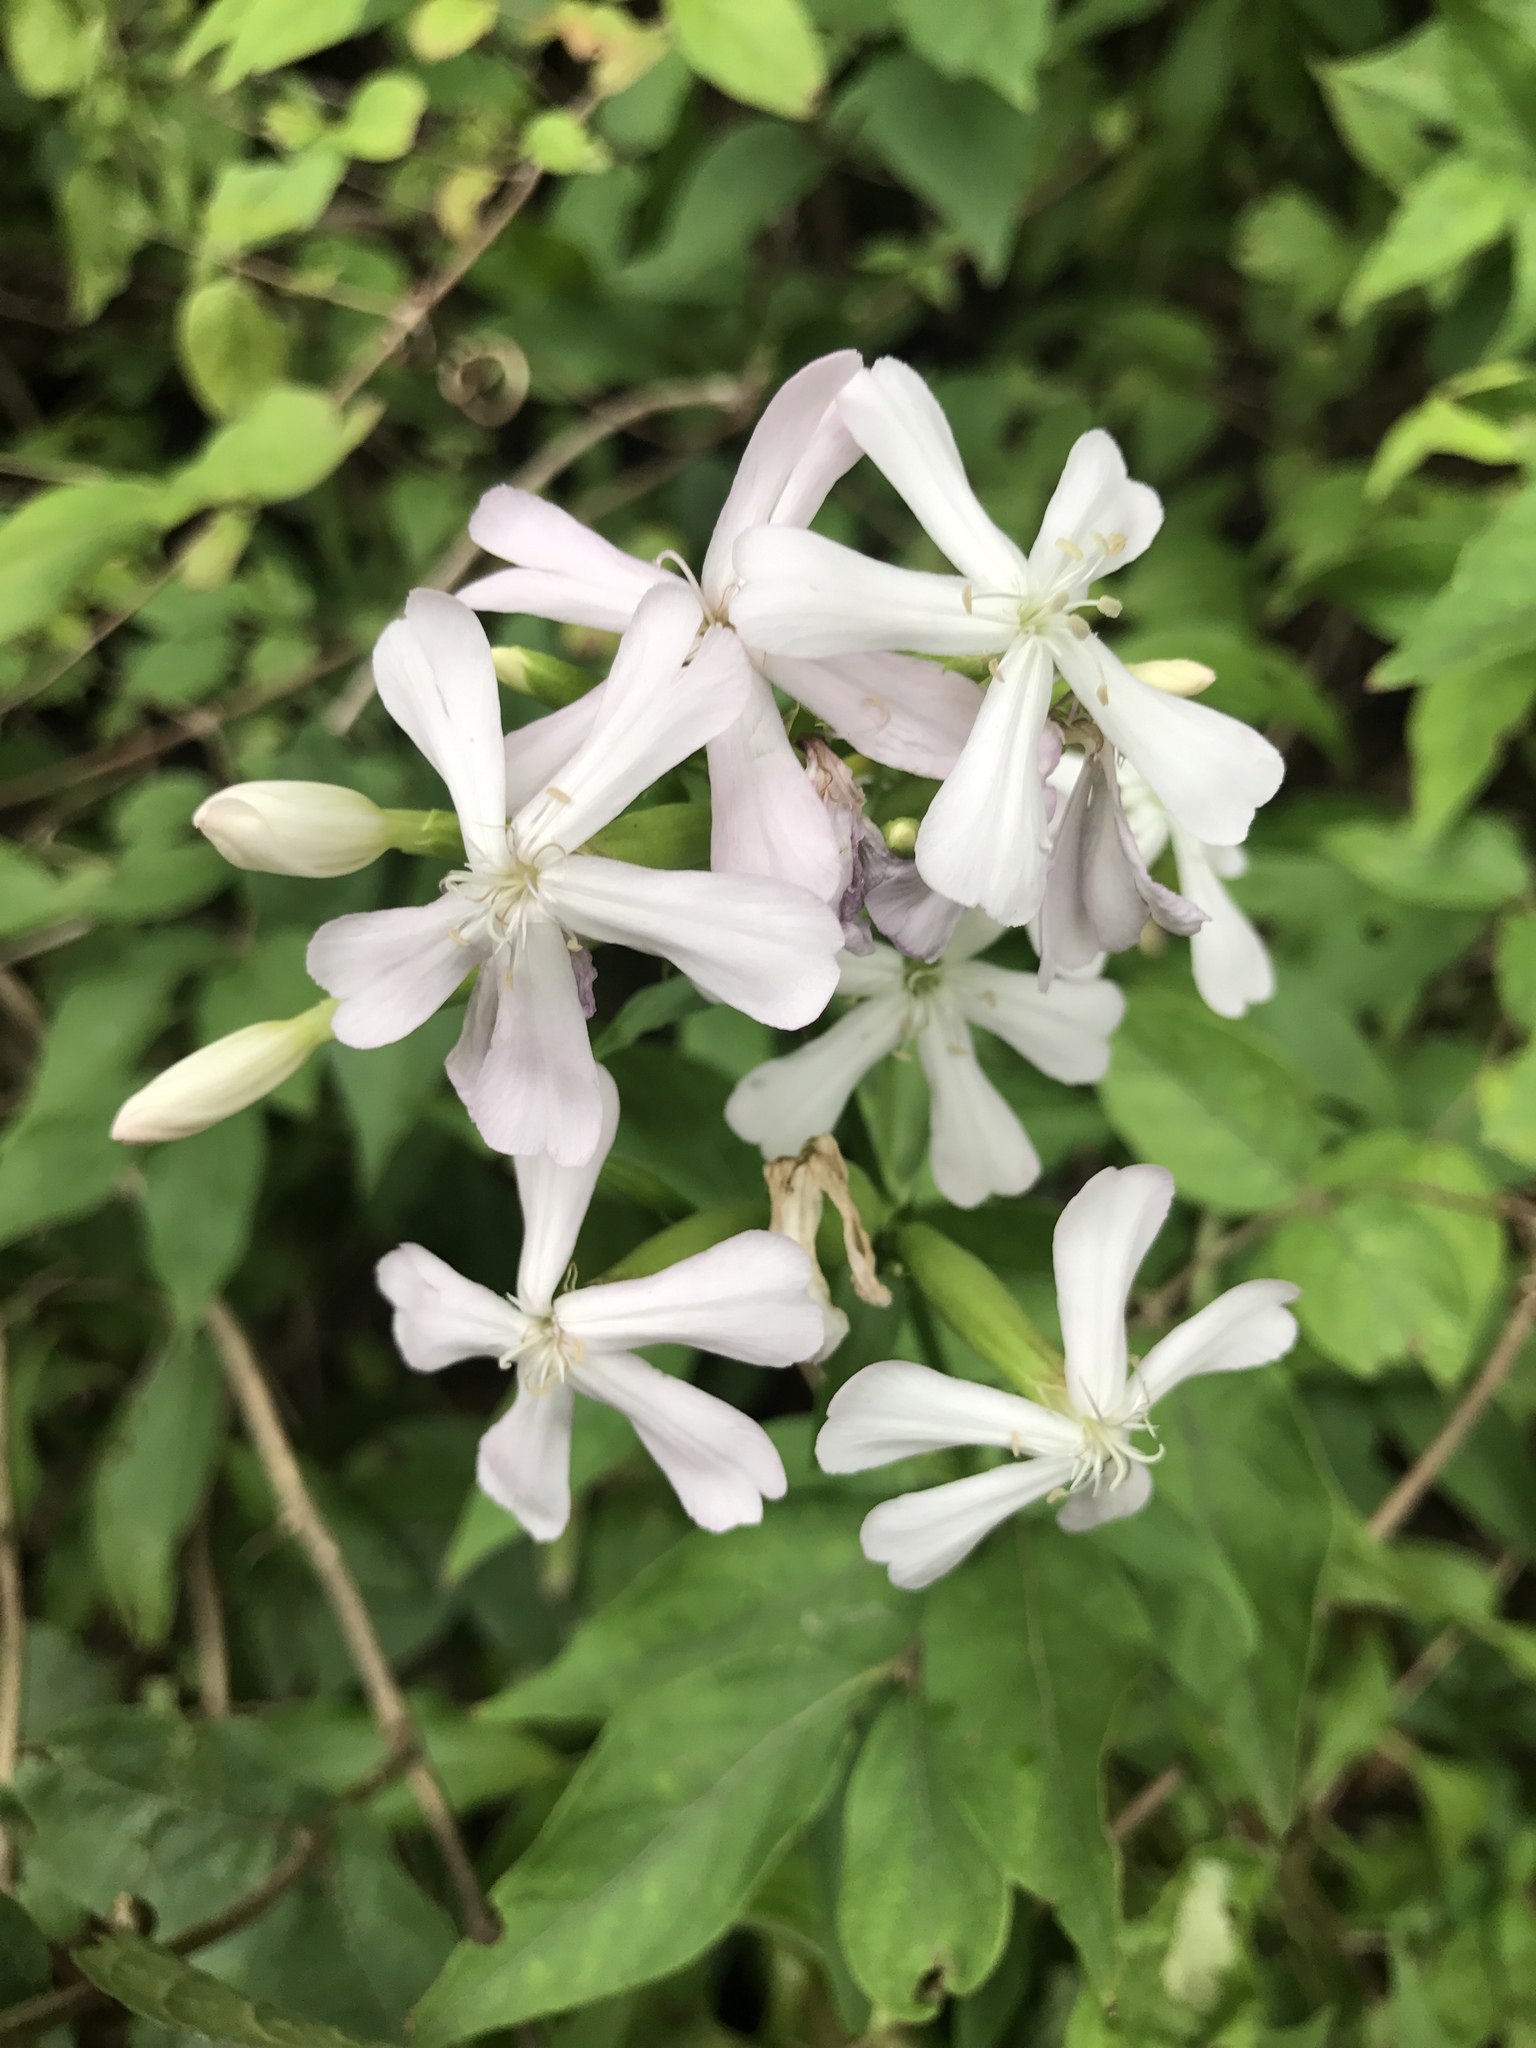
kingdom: Plantae
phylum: Tracheophyta
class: Magnoliopsida
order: Caryophyllales
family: Caryophyllaceae
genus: Saponaria
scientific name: Saponaria officinalis
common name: Soapwort
